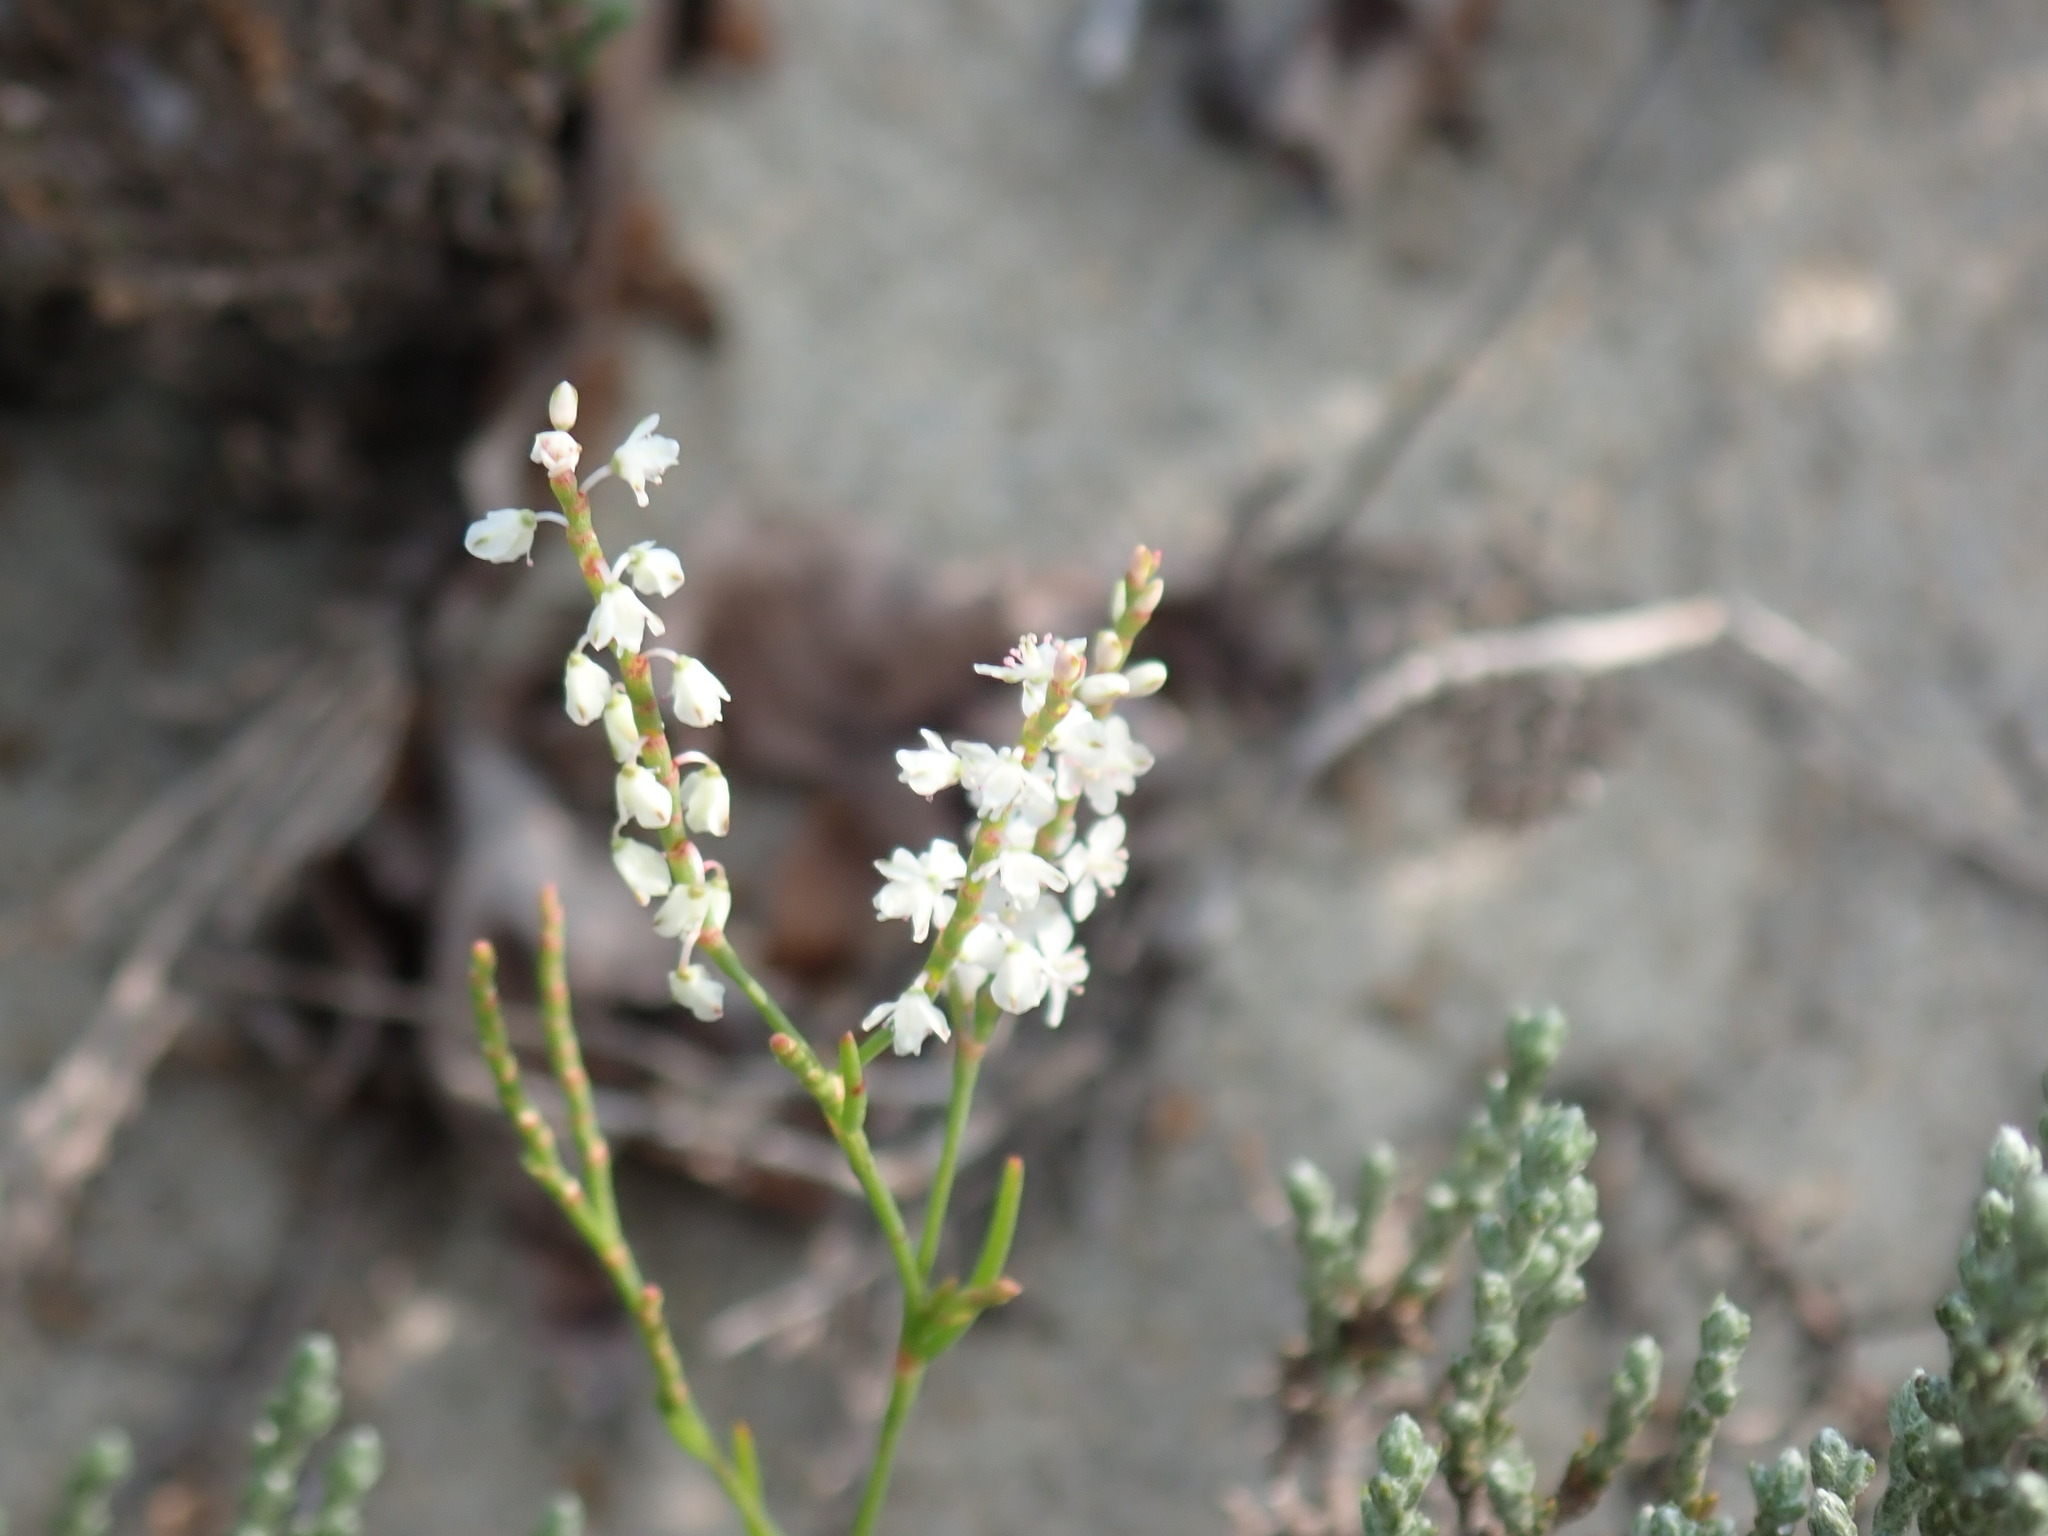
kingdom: Plantae
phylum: Tracheophyta
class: Magnoliopsida
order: Caryophyllales
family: Polygonaceae
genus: Polygonella
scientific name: Polygonella articulata
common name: Coastal jointweed
